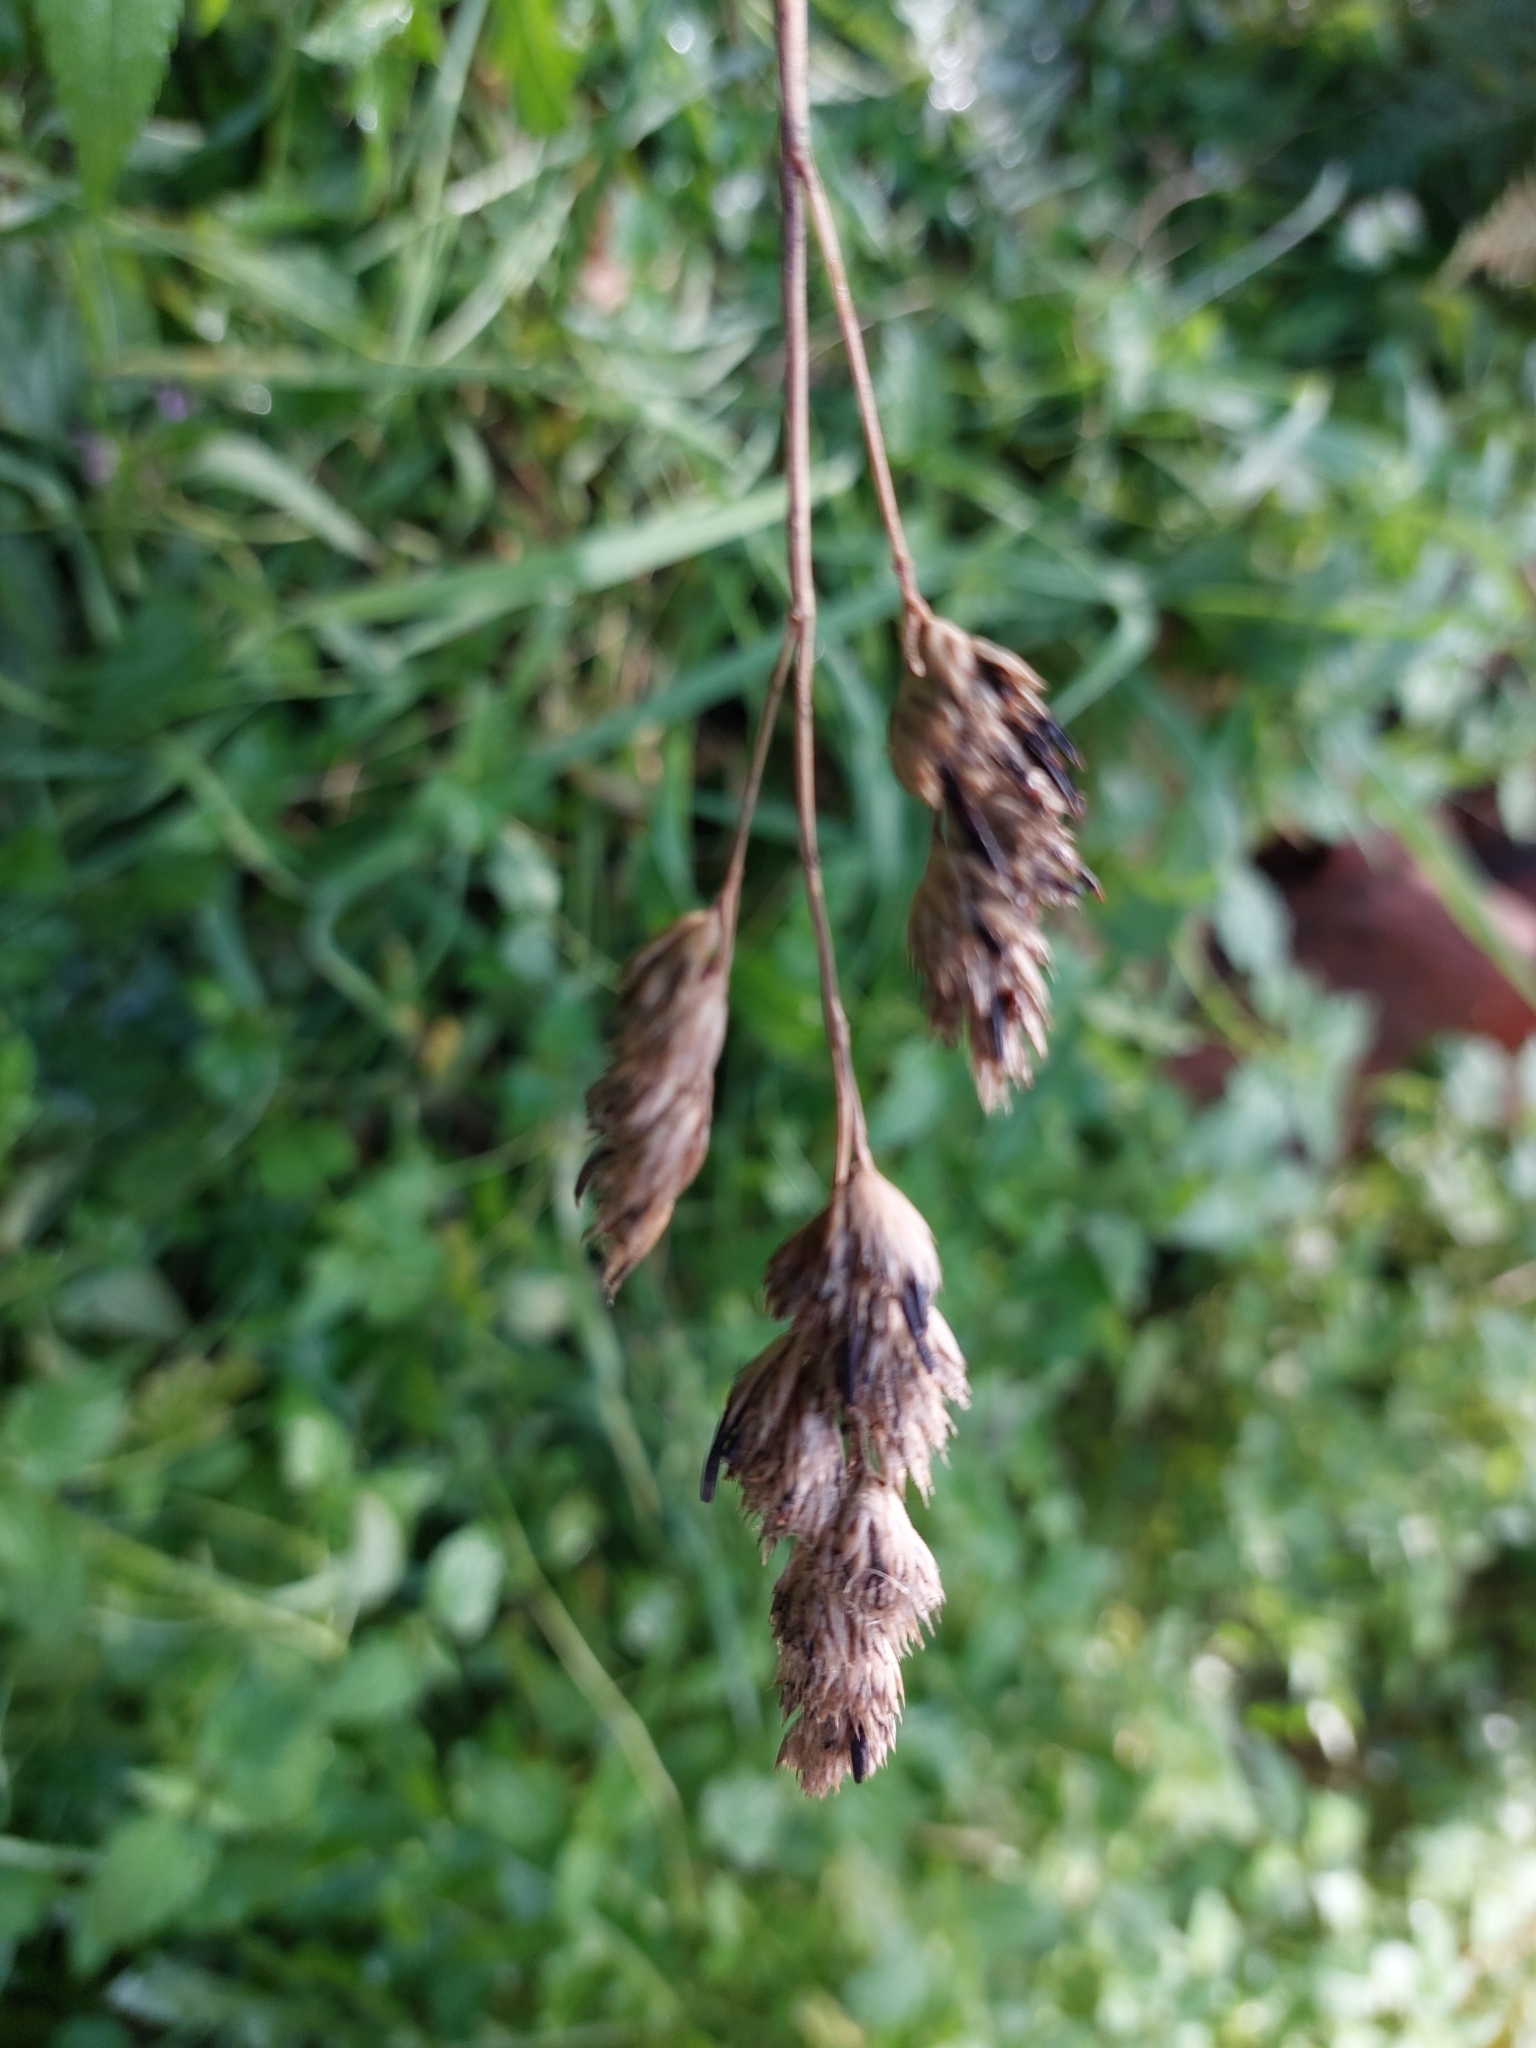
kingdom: Plantae
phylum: Tracheophyta
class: Liliopsida
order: Poales
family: Poaceae
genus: Dactylis
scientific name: Dactylis glomerata
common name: Orchardgrass
